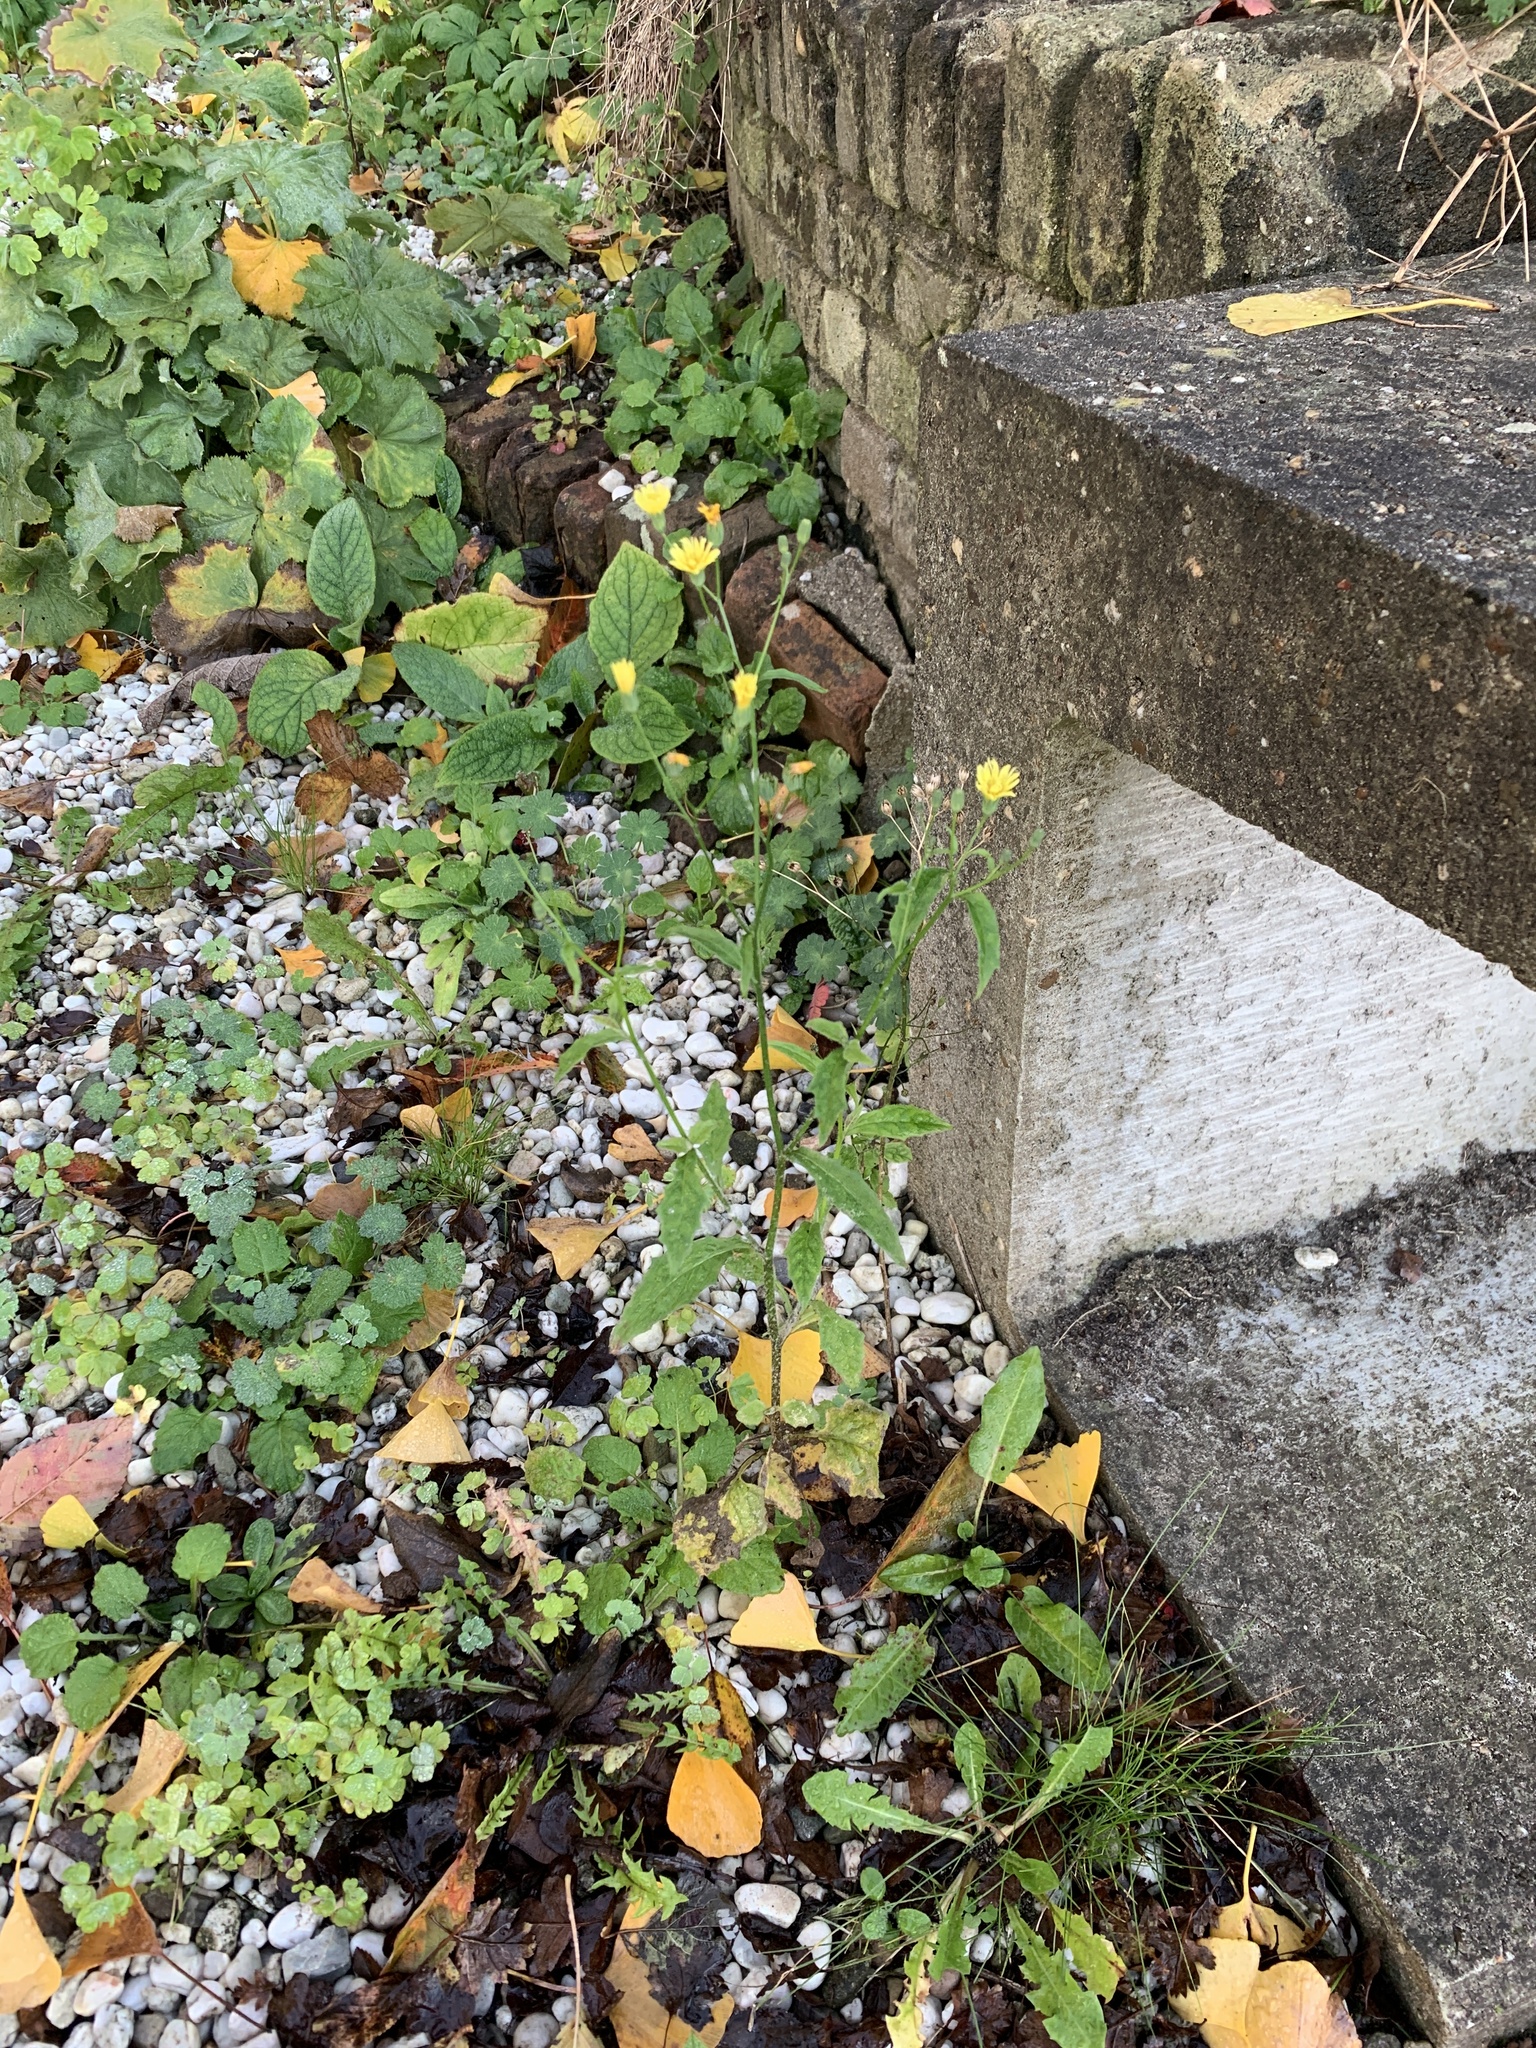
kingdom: Plantae
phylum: Tracheophyta
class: Magnoliopsida
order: Asterales
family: Asteraceae
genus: Lapsana
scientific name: Lapsana communis
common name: Nipplewort
